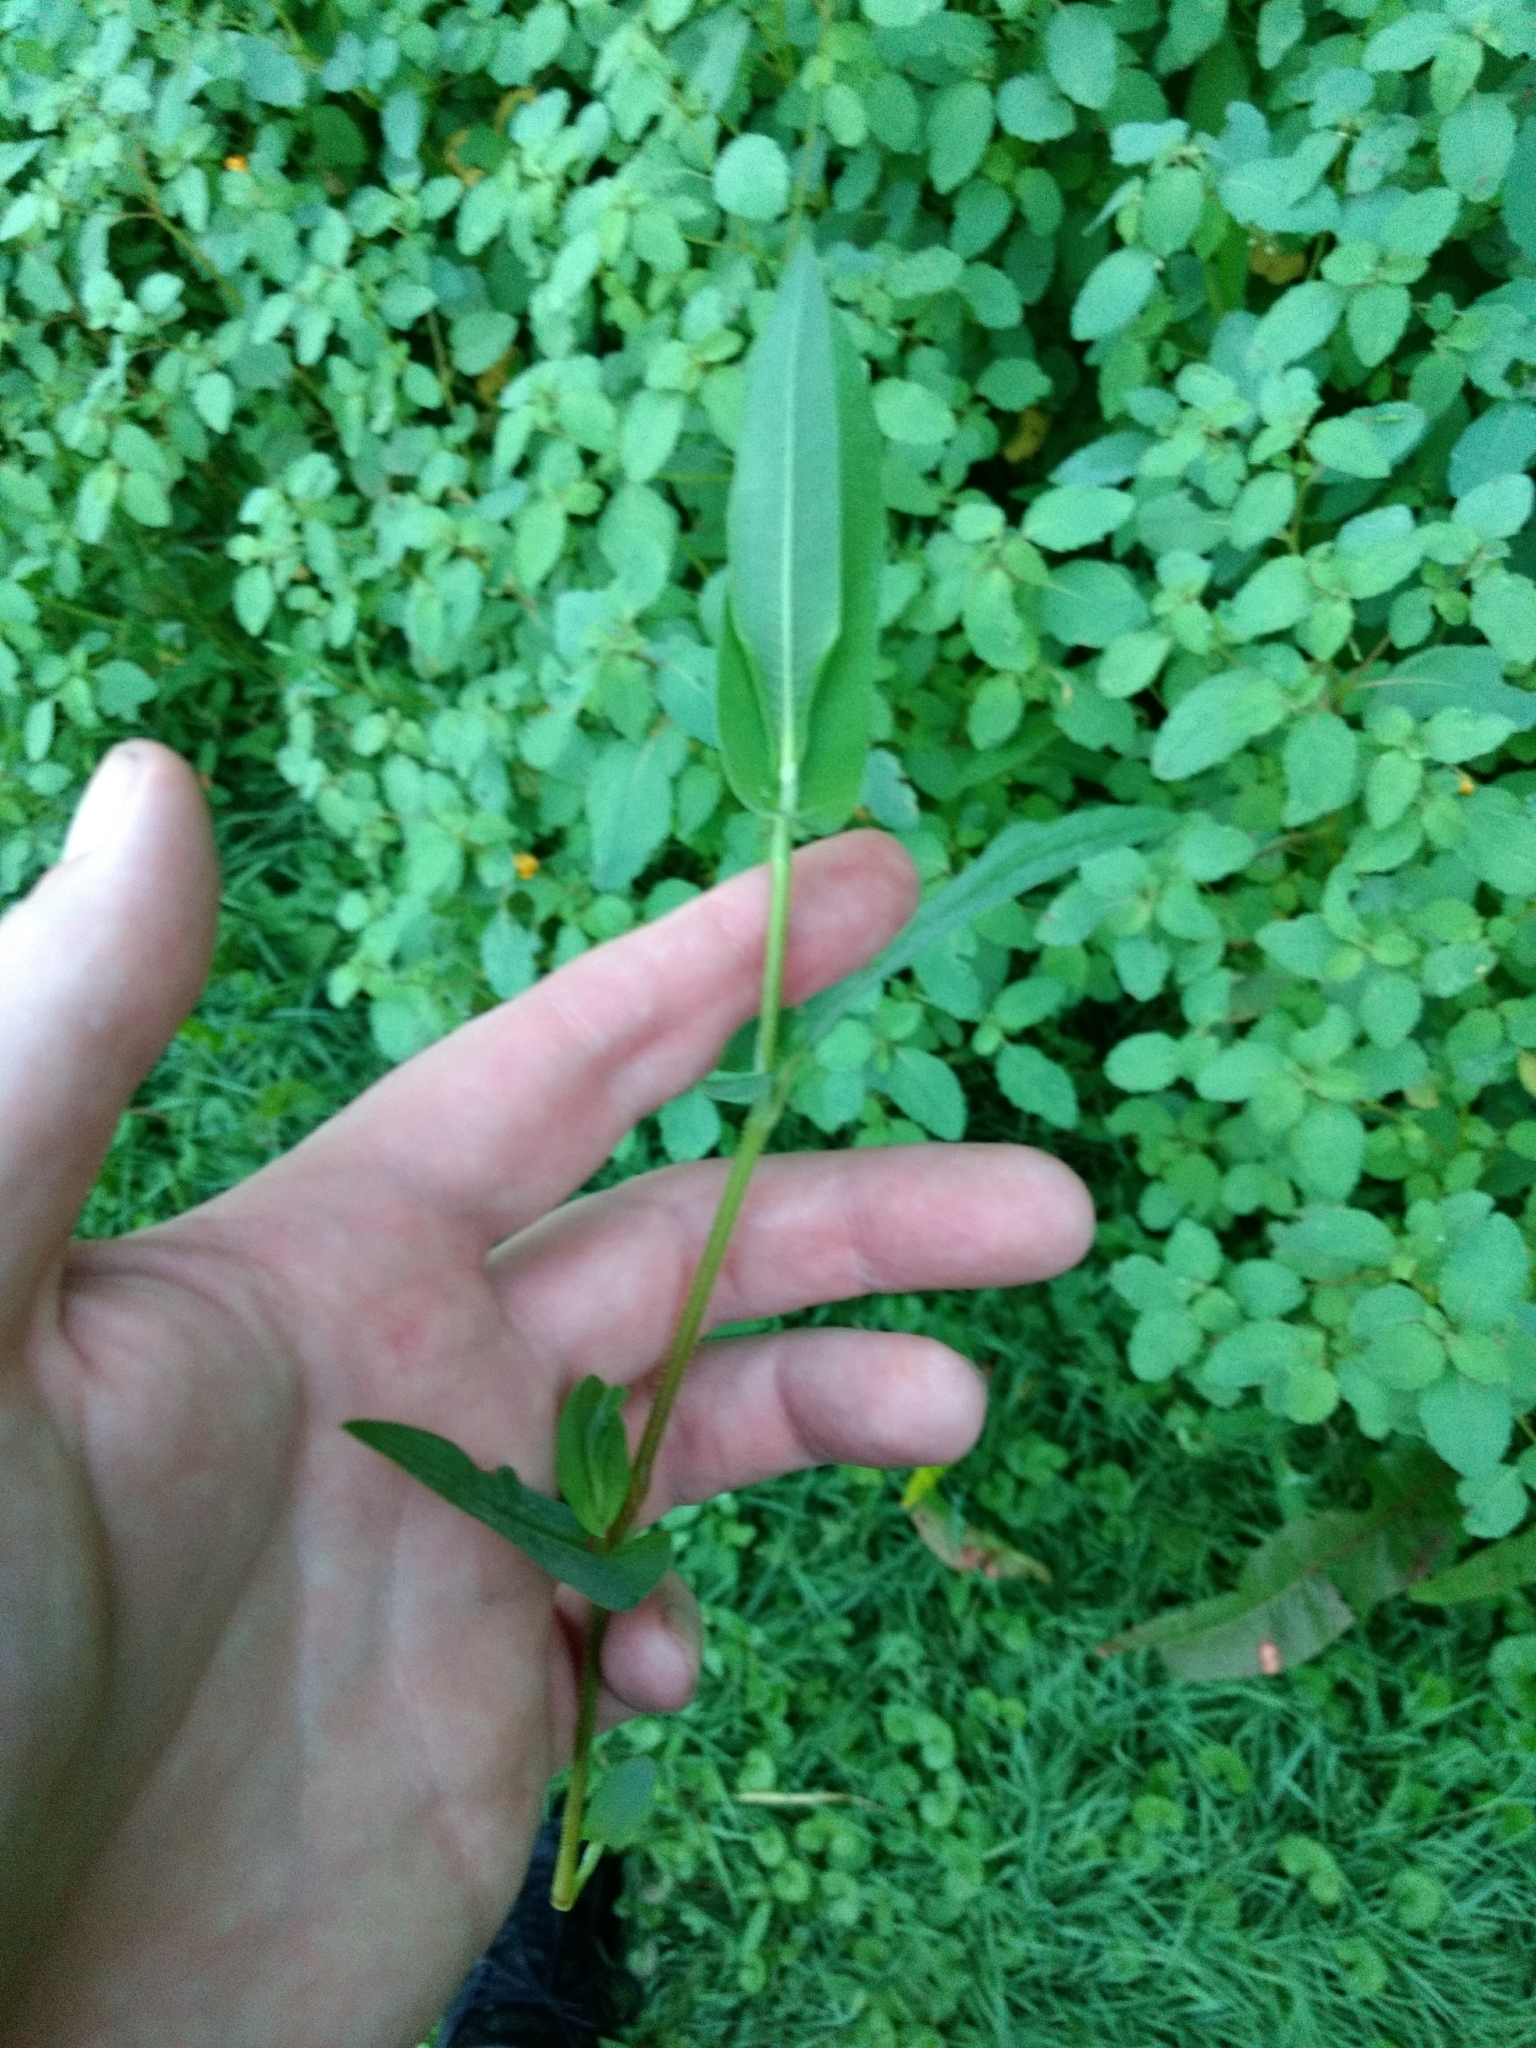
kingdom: Plantae
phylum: Tracheophyta
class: Magnoliopsida
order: Caryophyllales
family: Polygonaceae
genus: Persicaria
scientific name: Persicaria sagittata
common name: American tearthumb
